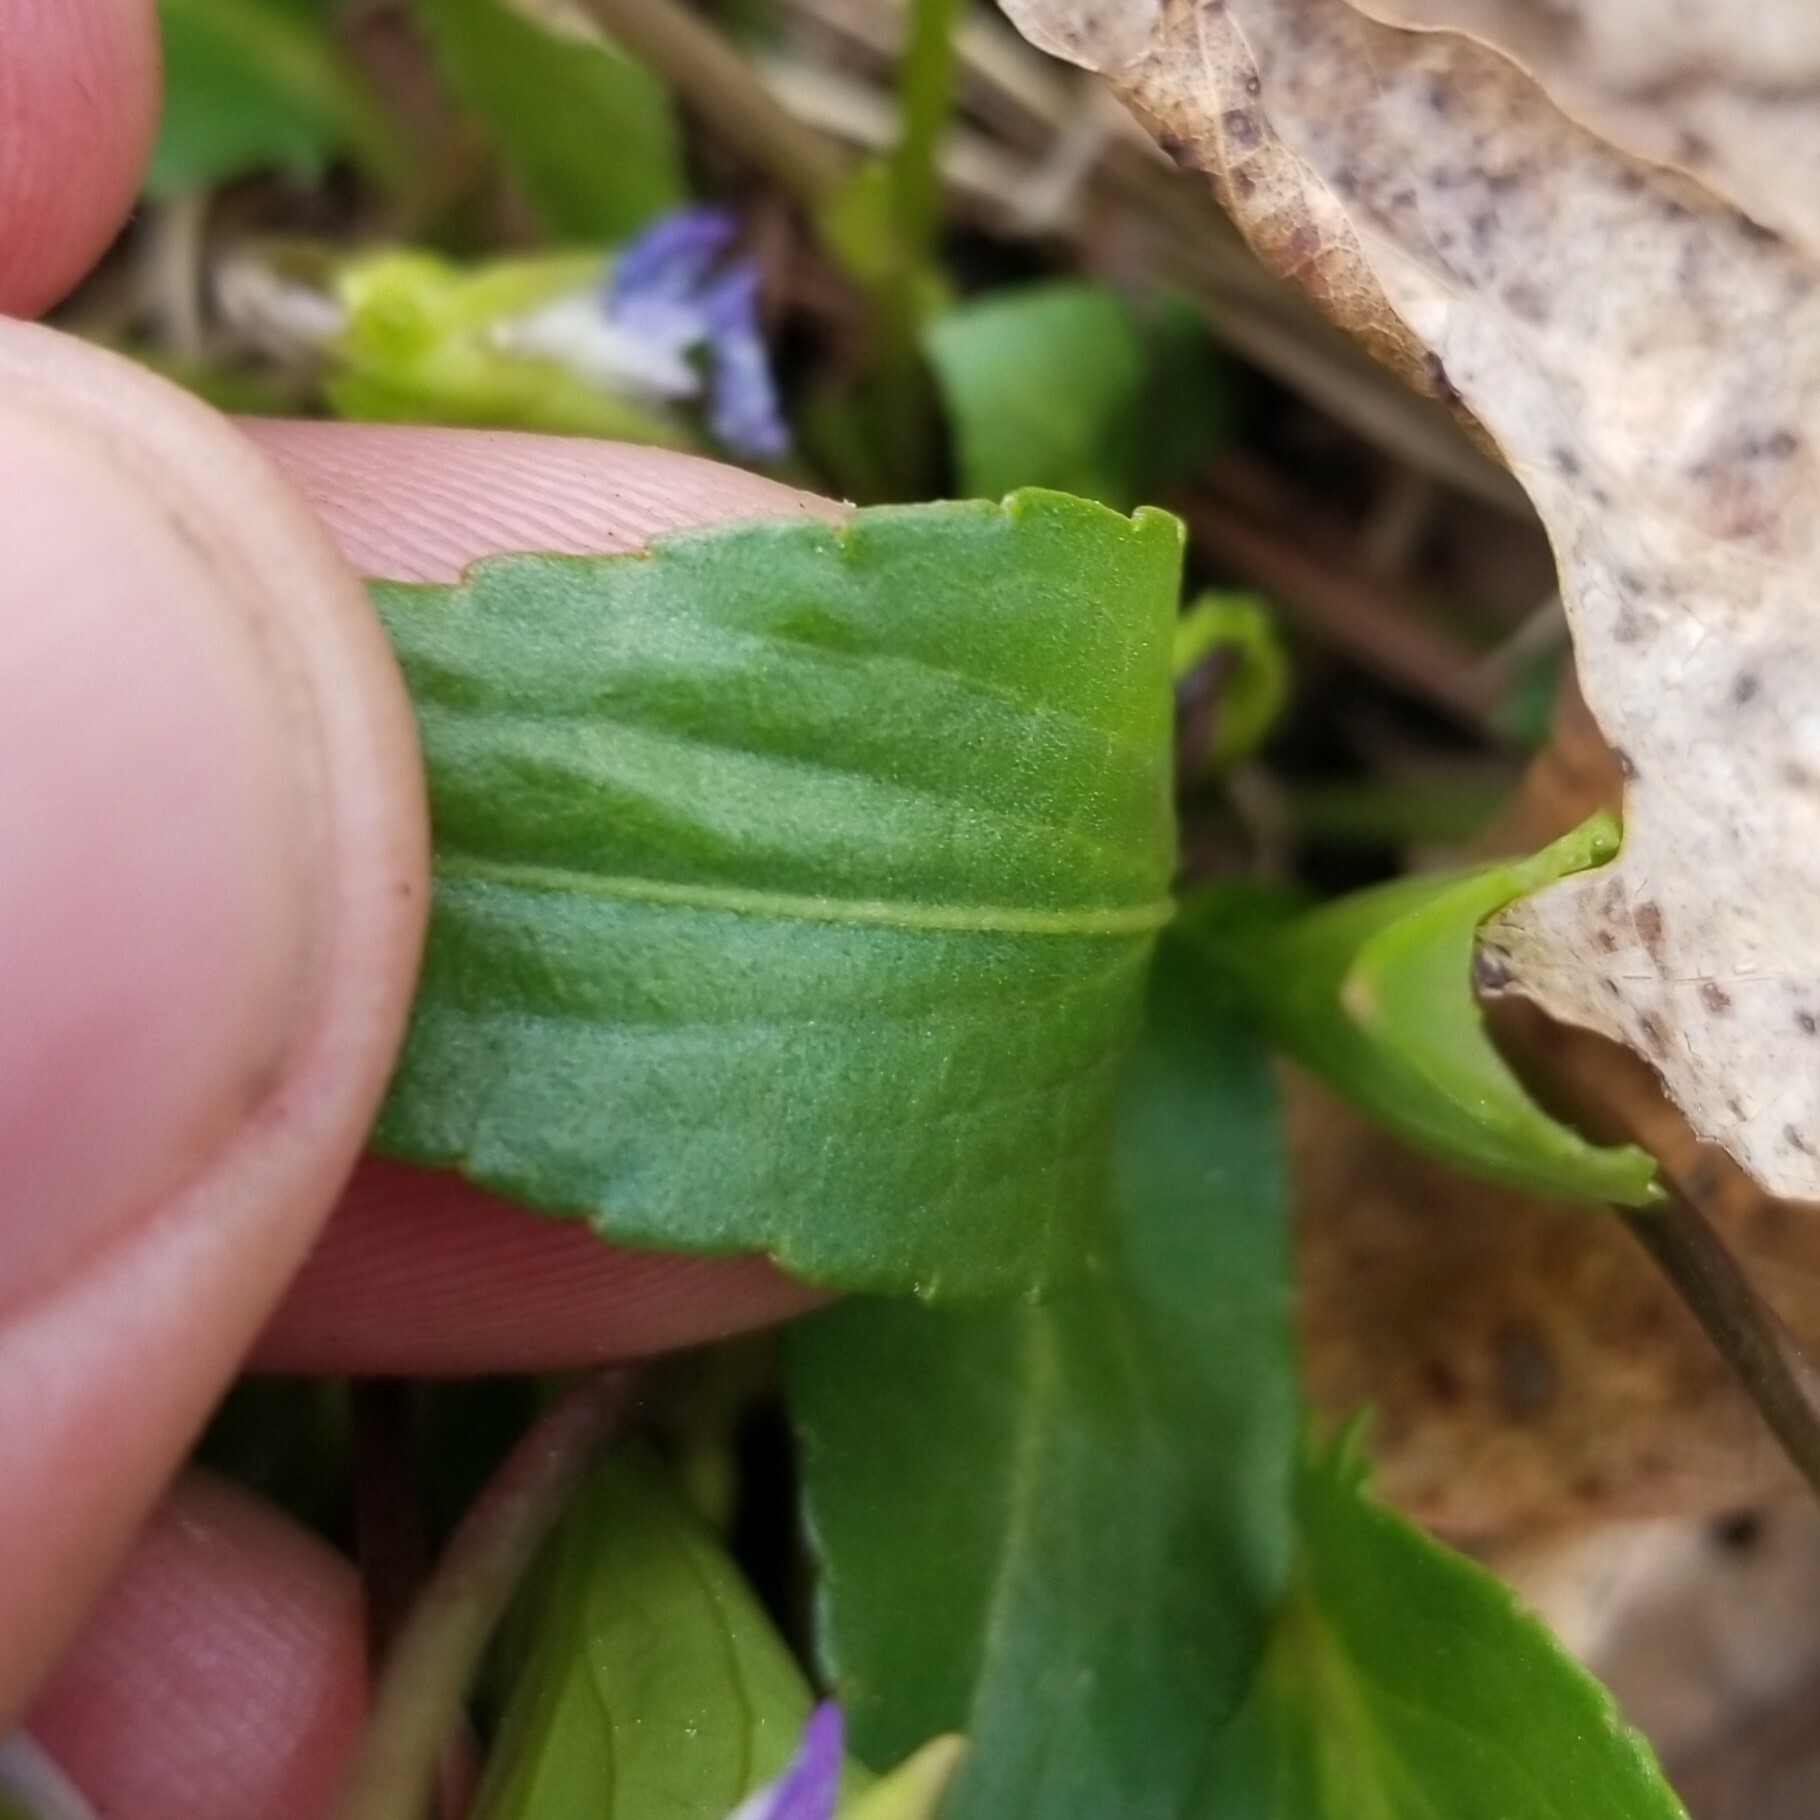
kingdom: Plantae
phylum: Tracheophyta
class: Magnoliopsida
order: Malpighiales
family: Violaceae
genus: Viola
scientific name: Viola sagittata
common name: Arrowhead violet
